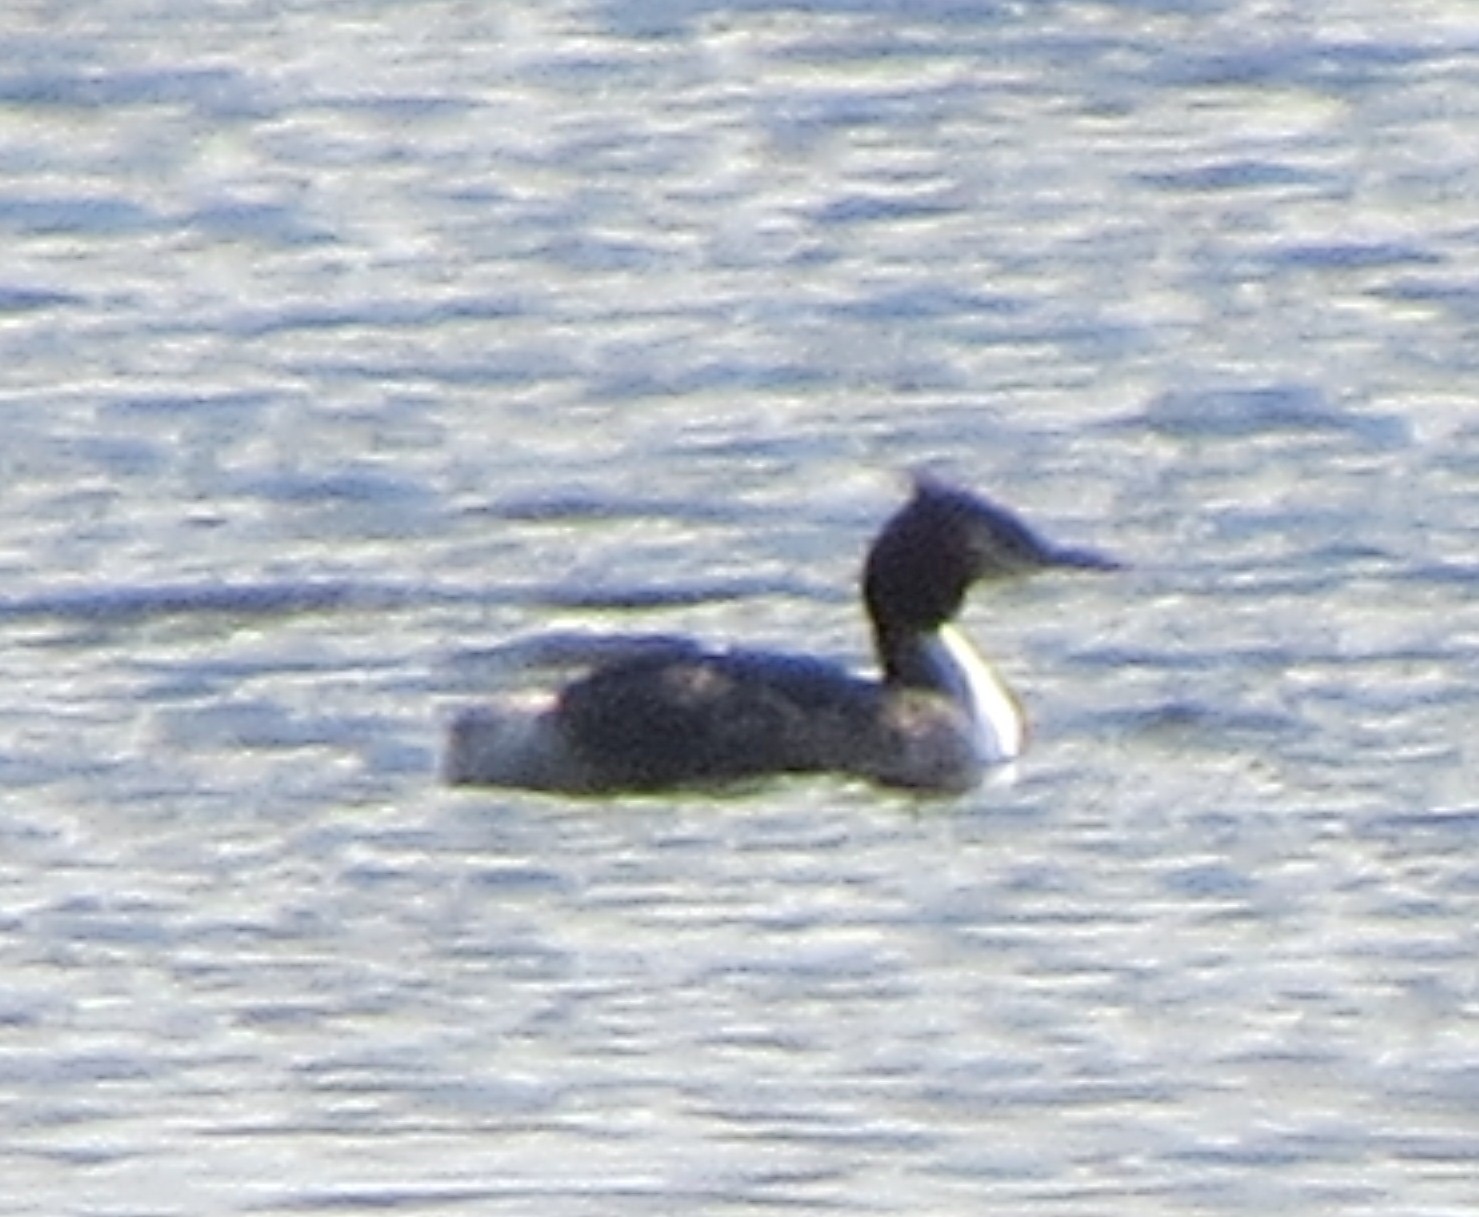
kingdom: Animalia
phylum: Chordata
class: Aves
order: Podicipediformes
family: Podicipedidae
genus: Podiceps
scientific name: Podiceps cristatus
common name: Great crested grebe
